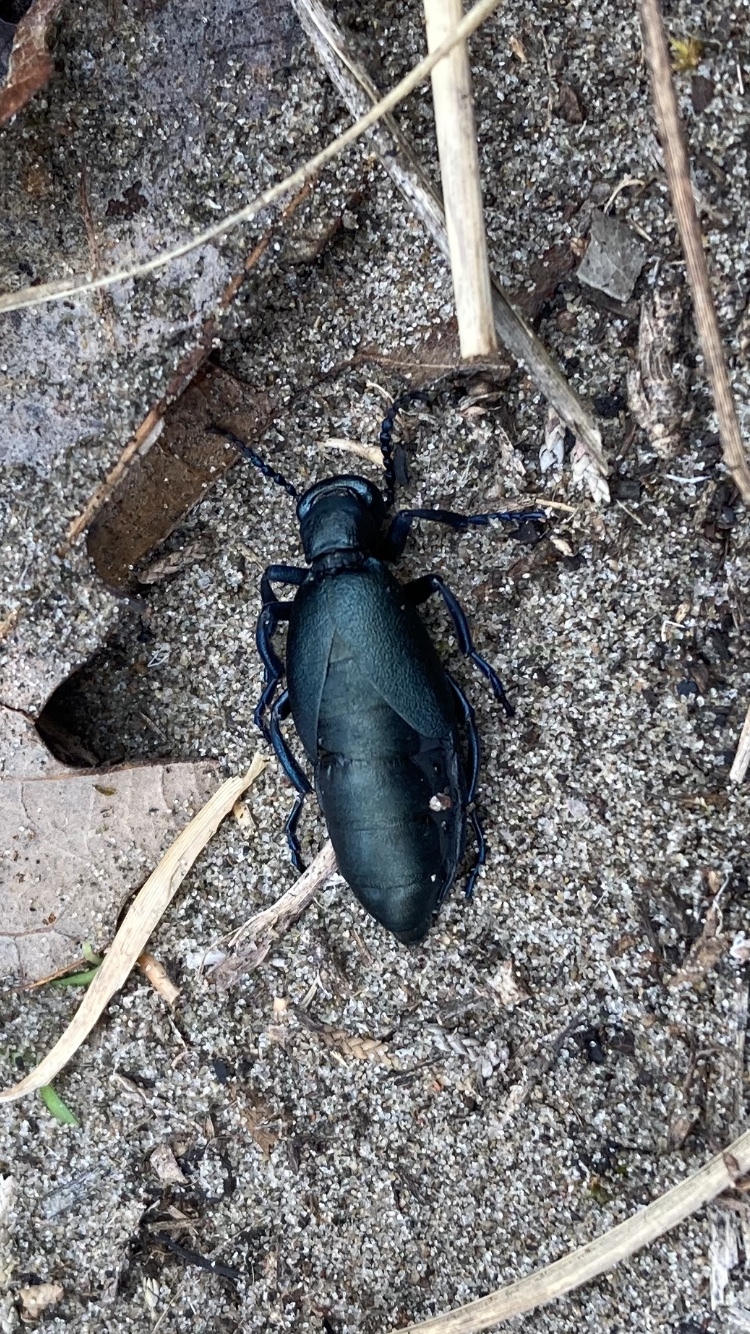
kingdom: Animalia
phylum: Arthropoda
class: Insecta
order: Coleoptera
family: Meloidae
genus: Meloe
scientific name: Meloe angusticollis
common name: Short-winged blister beetle
